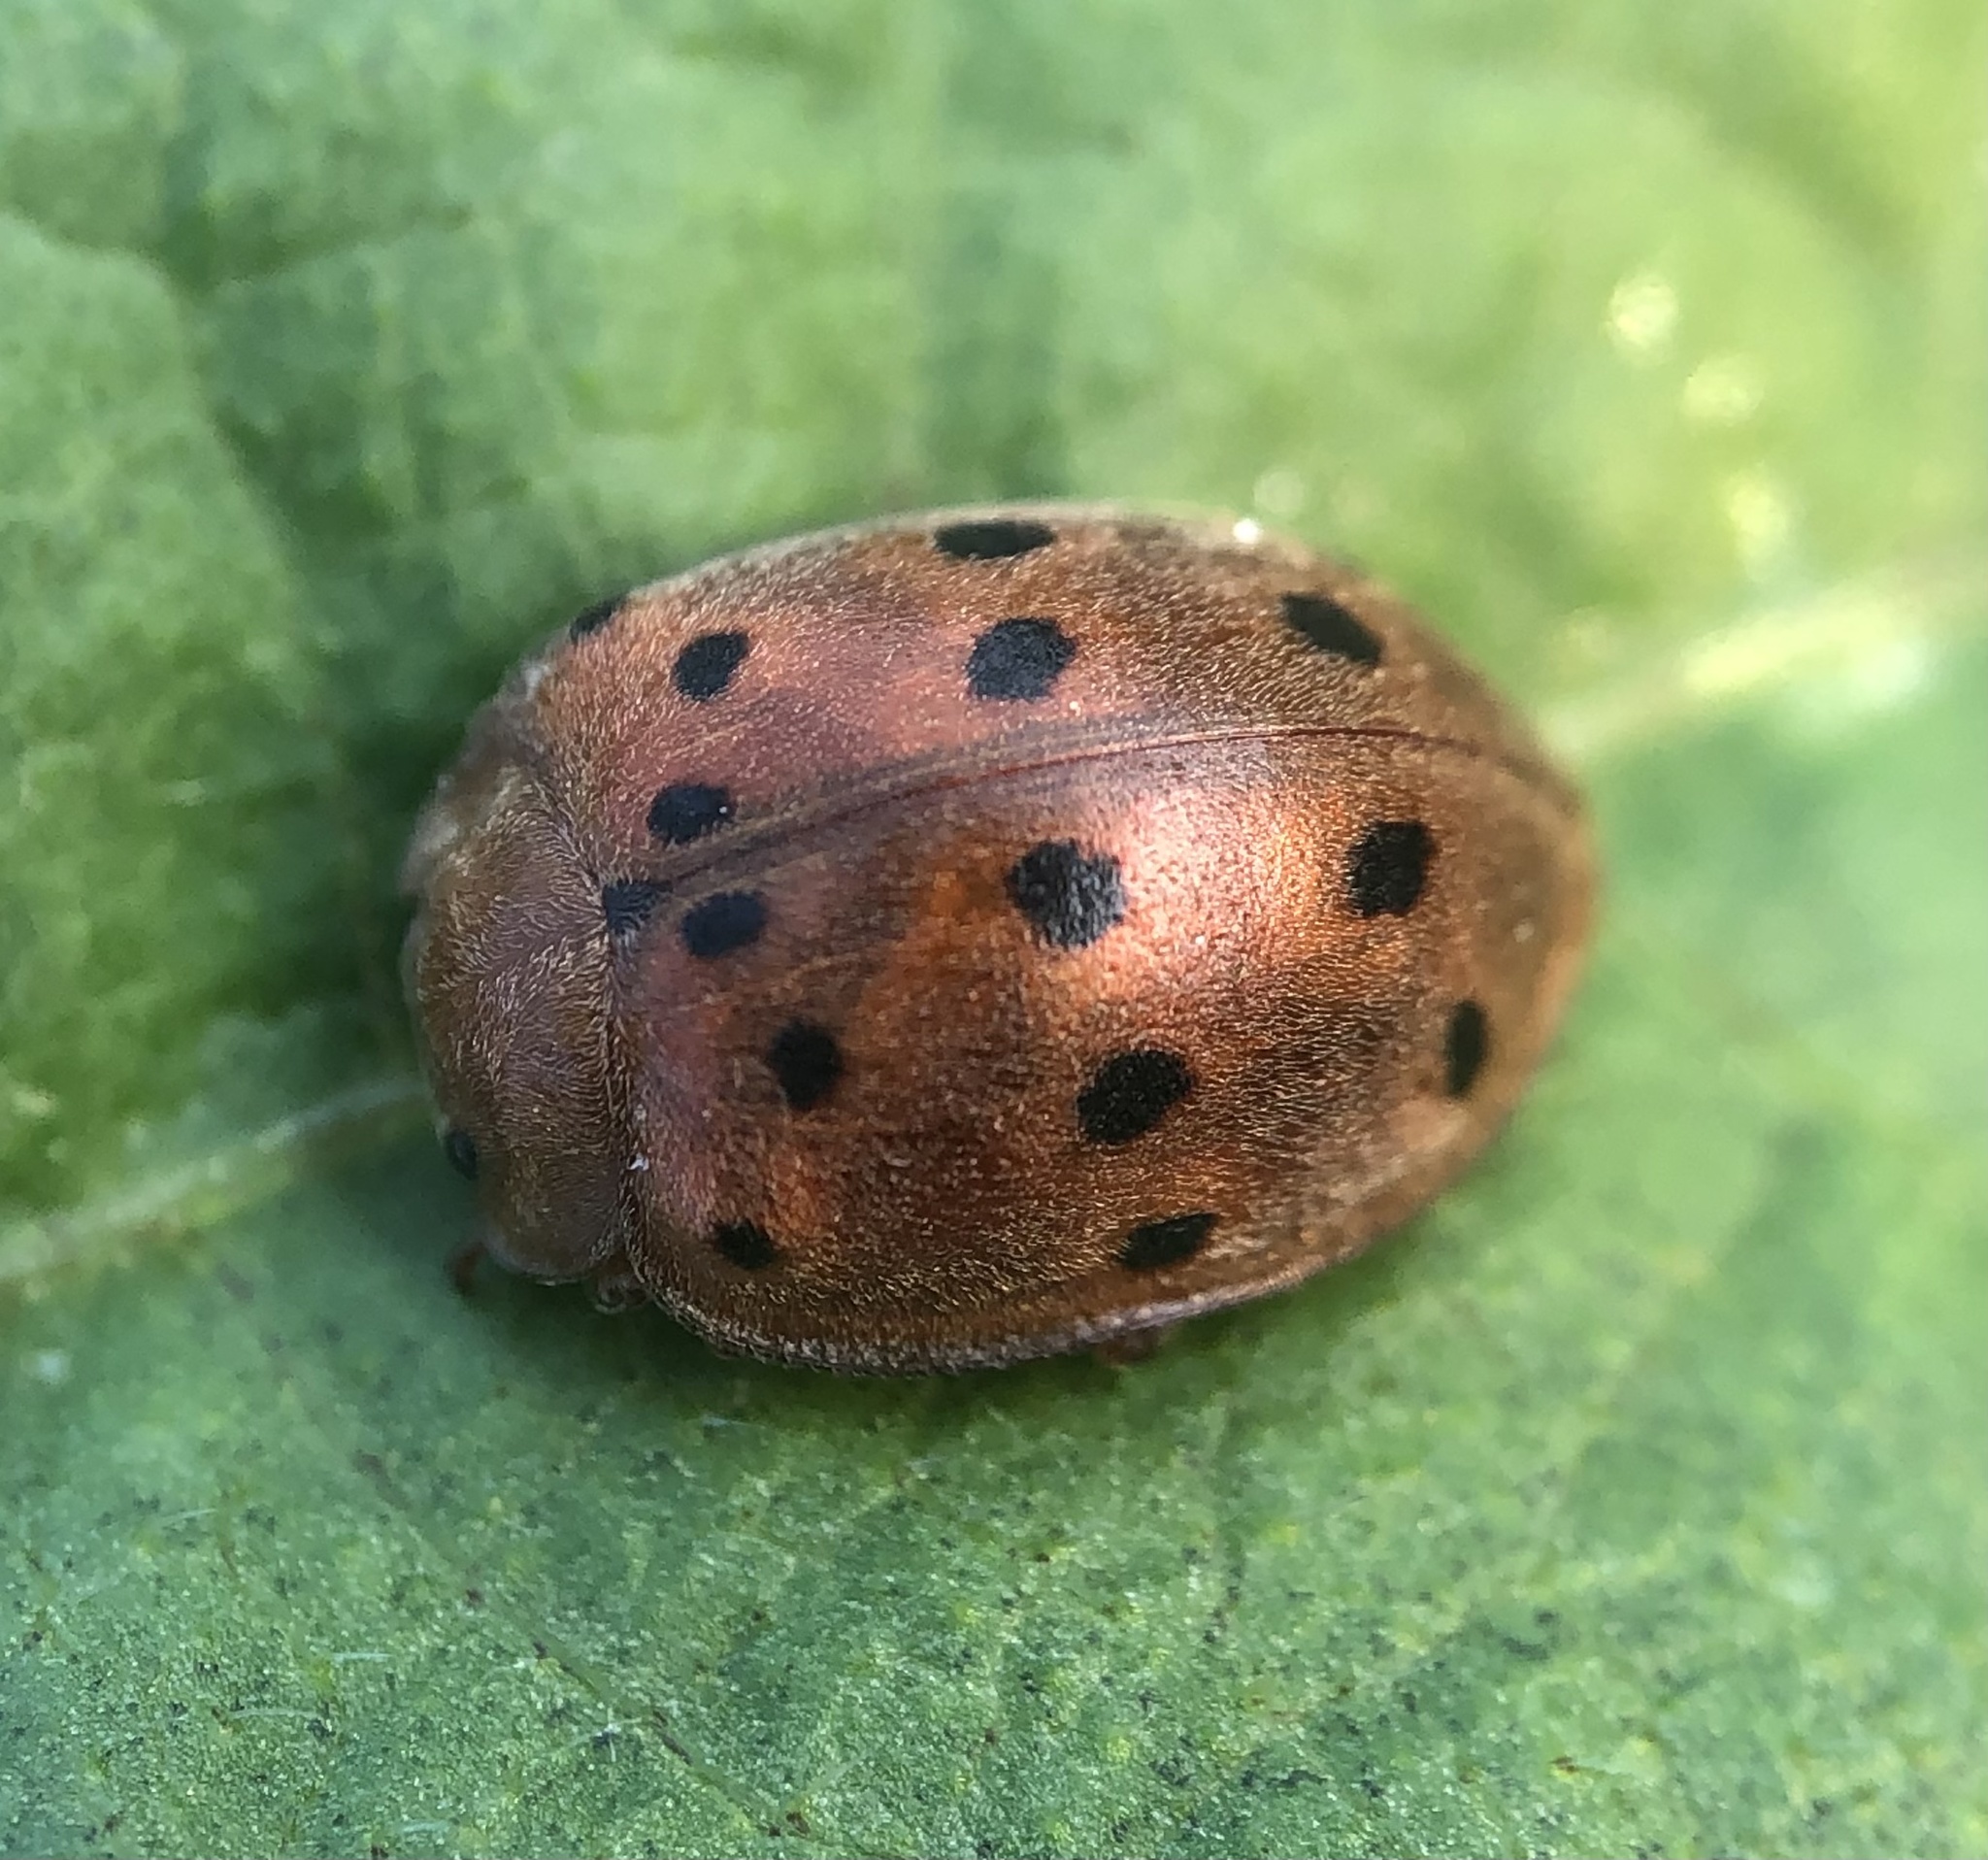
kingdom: Animalia
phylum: Arthropoda
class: Insecta
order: Coleoptera
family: Coccinellidae
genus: Epilachna
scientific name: Epilachna varivestis
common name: Ladybird beetle
